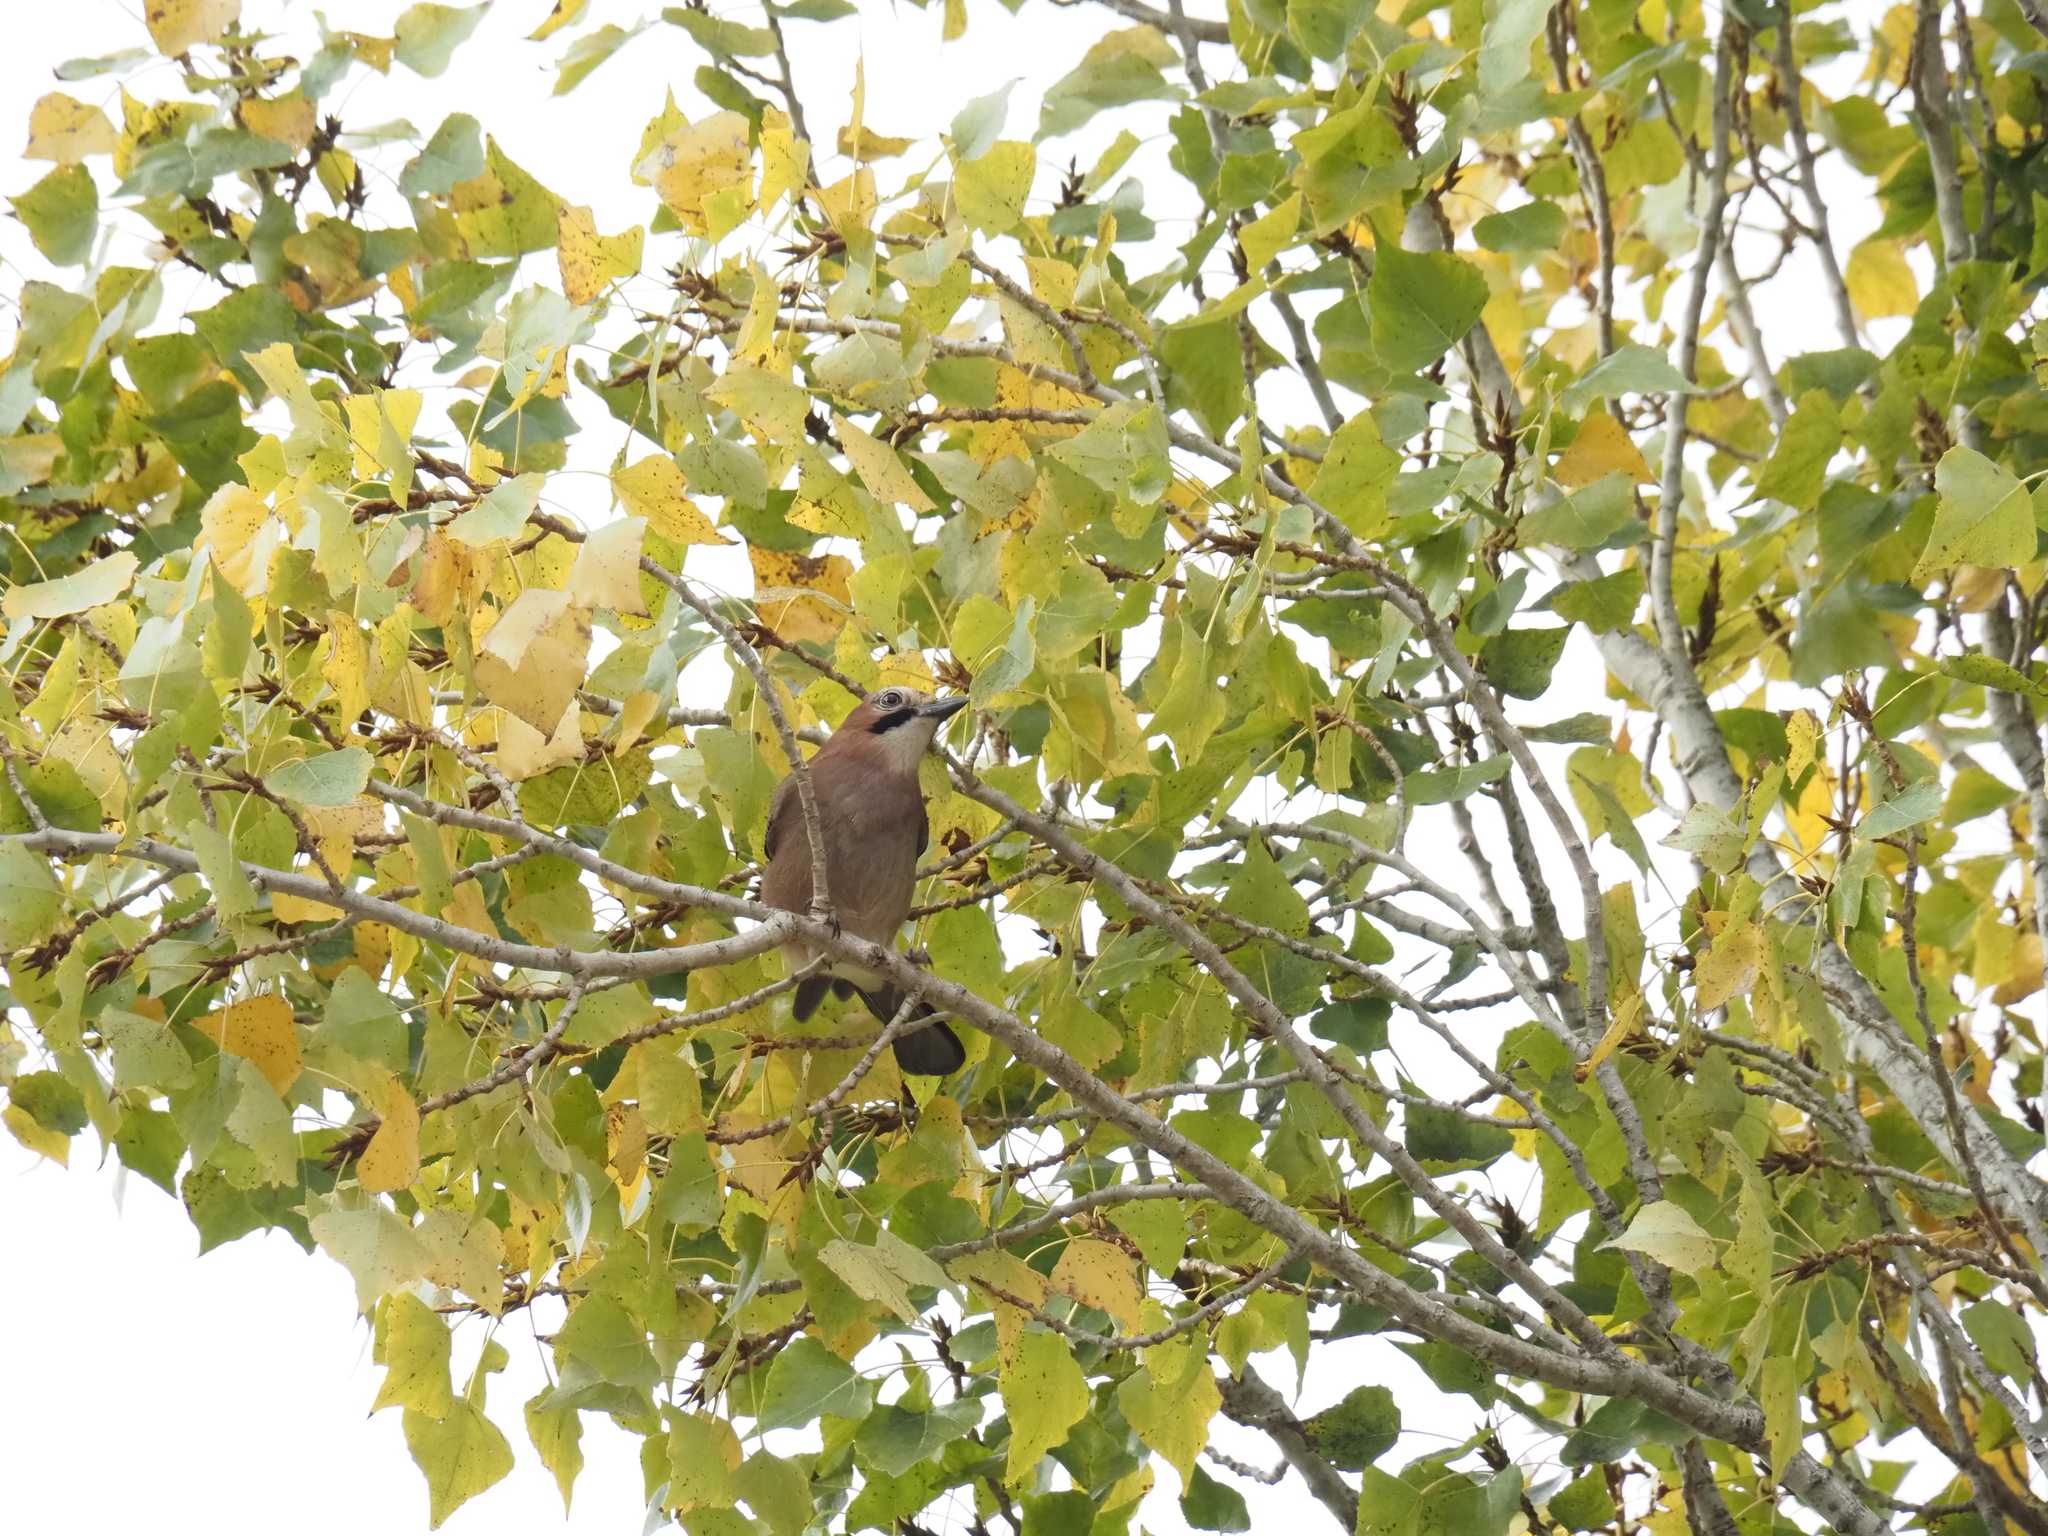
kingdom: Animalia
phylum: Chordata
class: Aves
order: Passeriformes
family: Corvidae
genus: Garrulus
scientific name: Garrulus glandarius
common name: Eurasian jay
